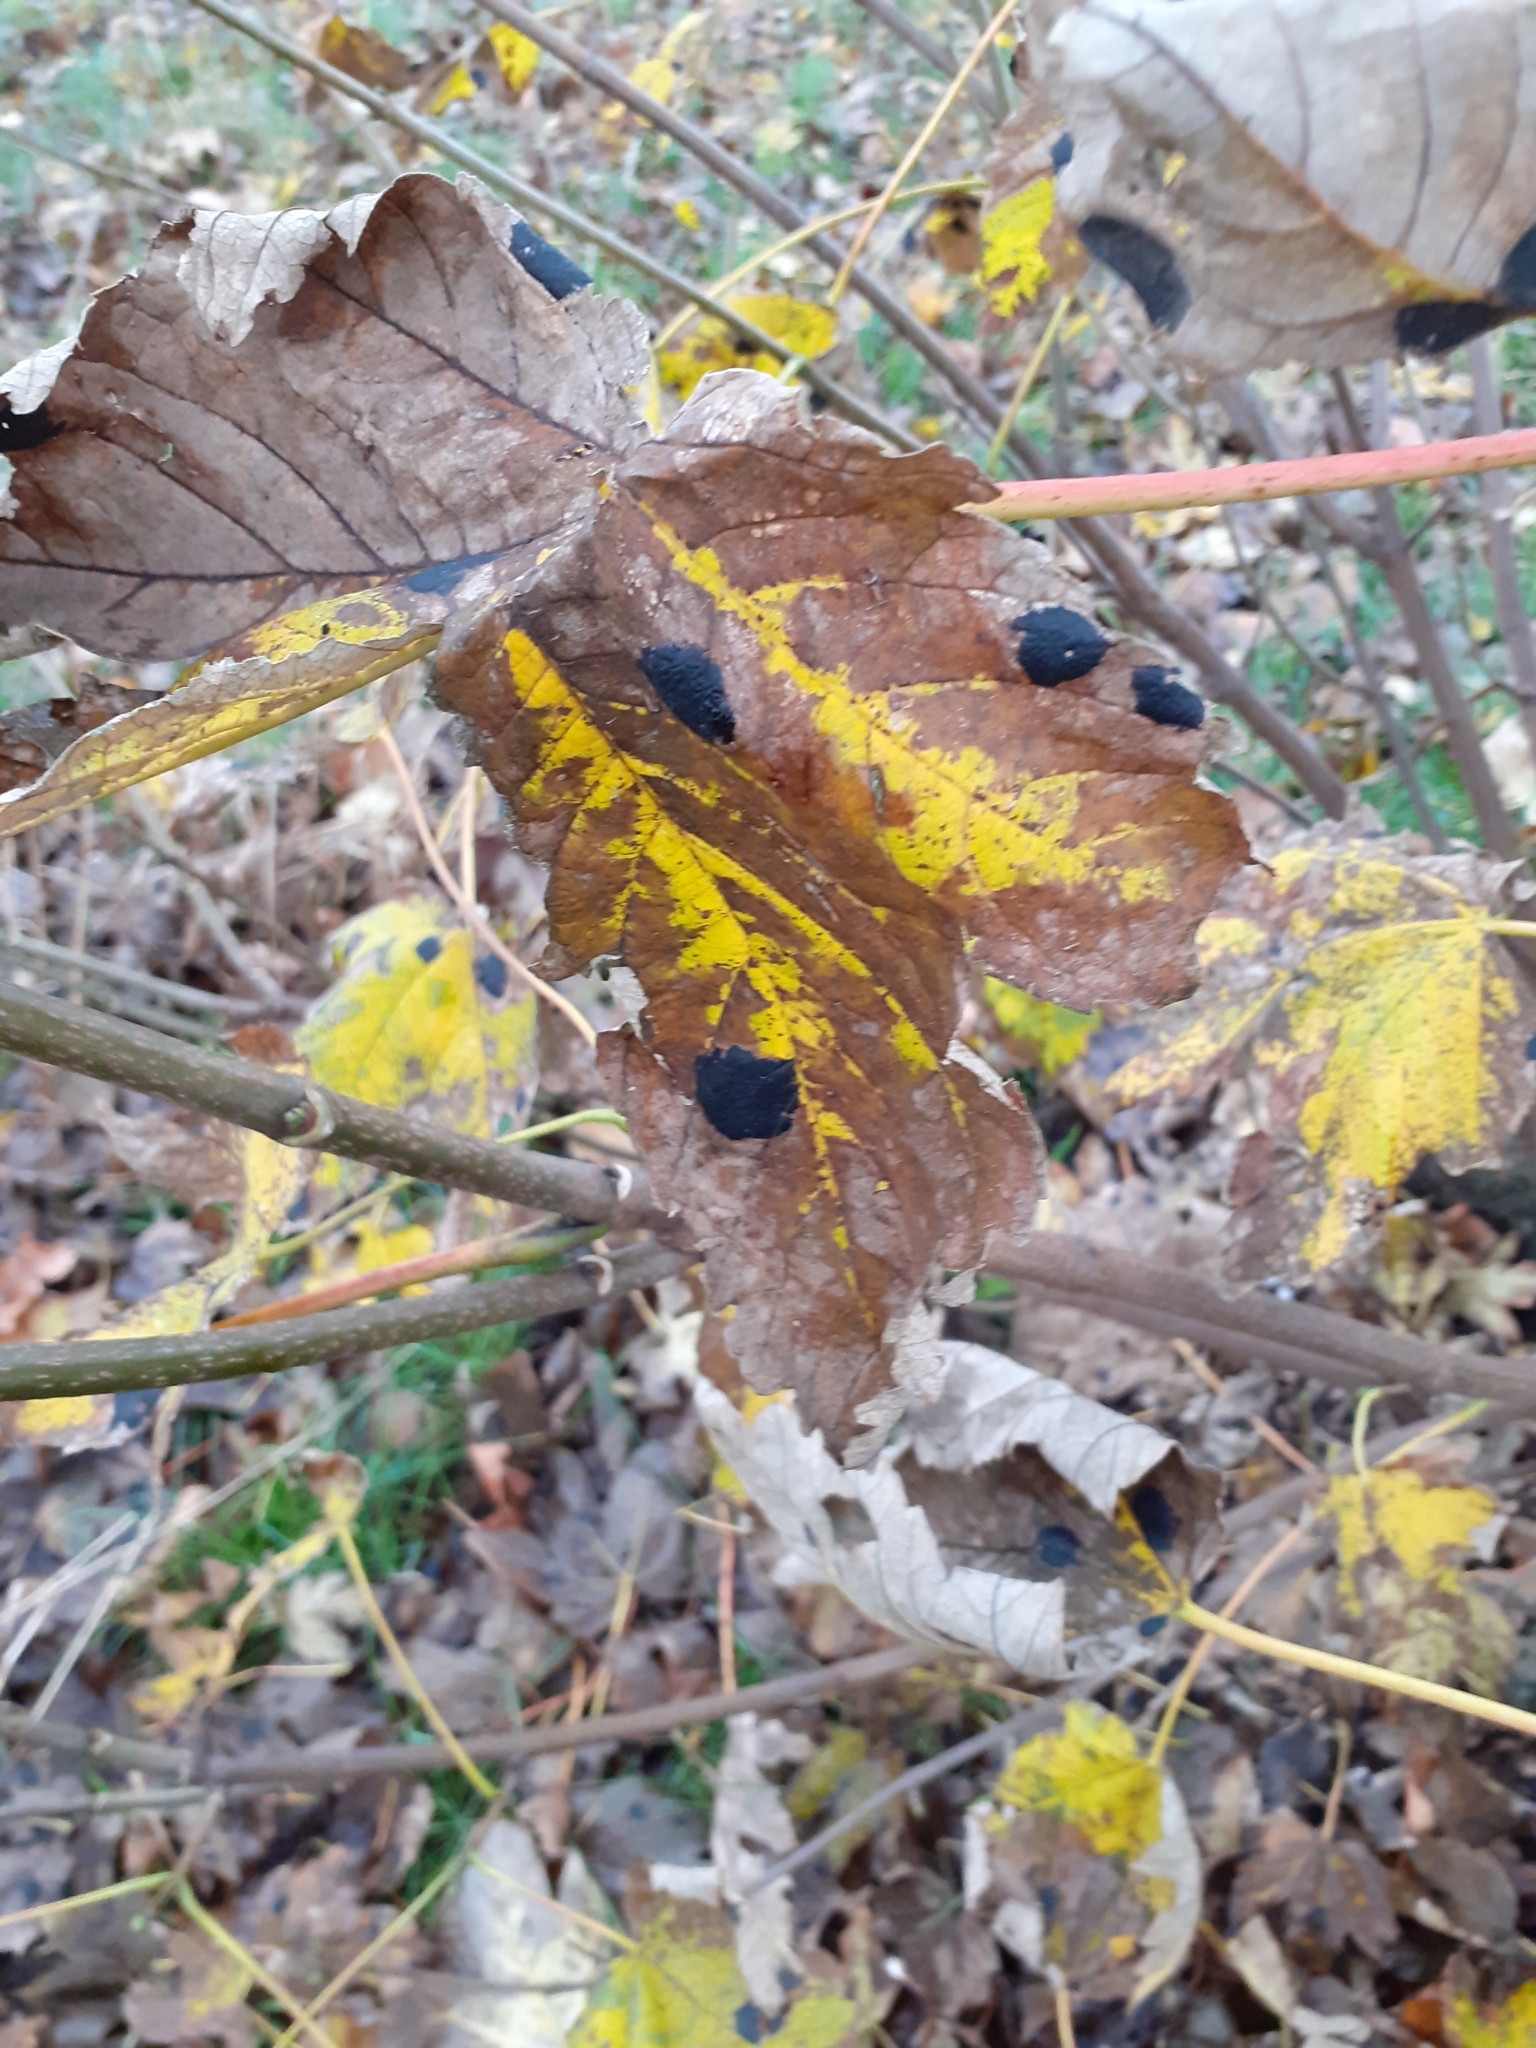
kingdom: Fungi
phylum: Ascomycota
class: Leotiomycetes
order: Rhytismatales
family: Rhytismataceae
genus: Rhytisma
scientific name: Rhytisma acerinum
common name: European tar spot
